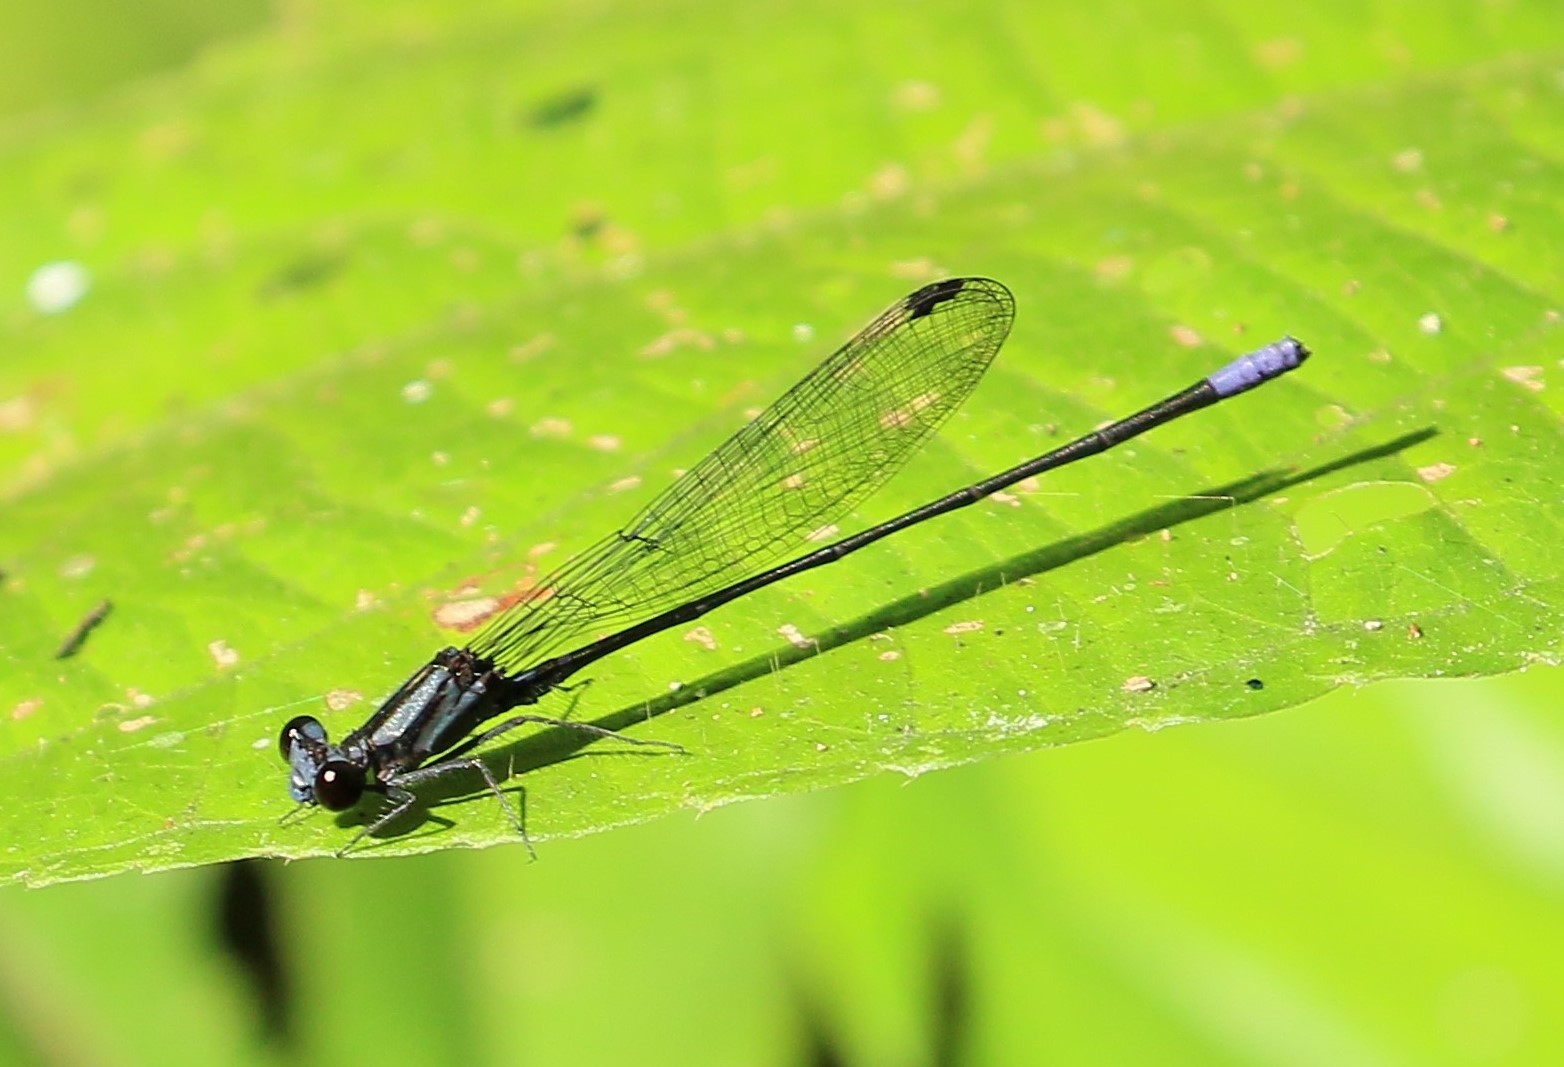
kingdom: Animalia
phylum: Arthropoda
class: Insecta
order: Odonata
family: Coenagrionidae
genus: Argia
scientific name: Argia frequentula
